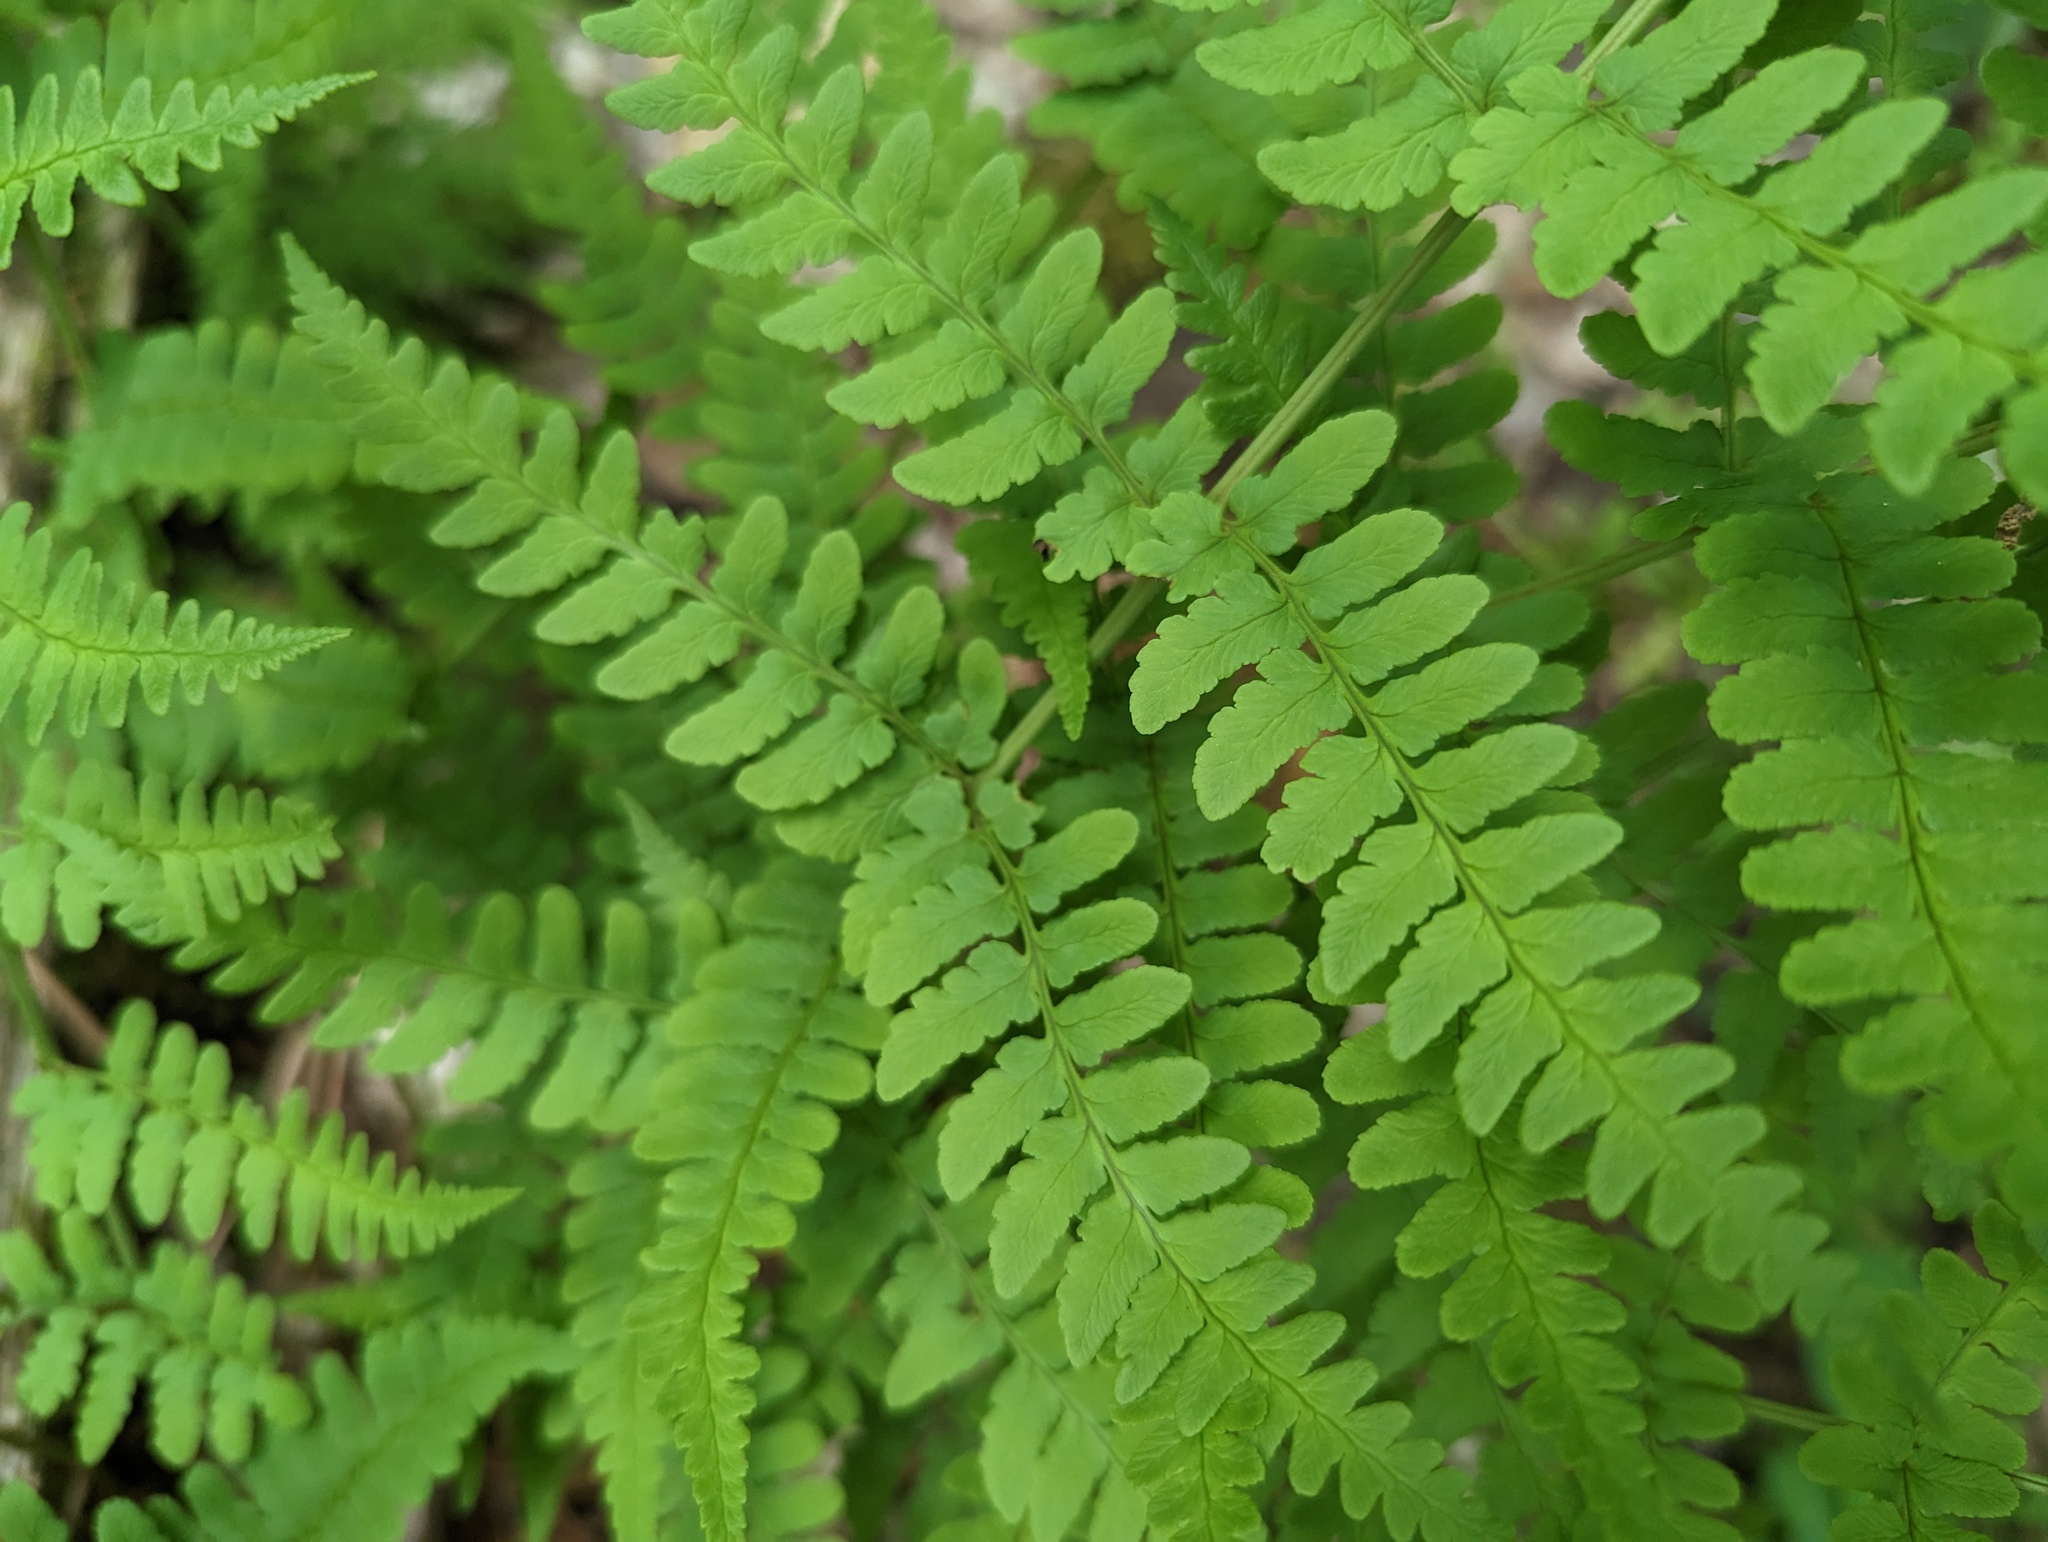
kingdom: Plantae
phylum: Tracheophyta
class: Polypodiopsida
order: Polypodiales
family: Dryopteridaceae
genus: Dryopteris
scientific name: Dryopteris marginalis
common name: Marginal wood fern
